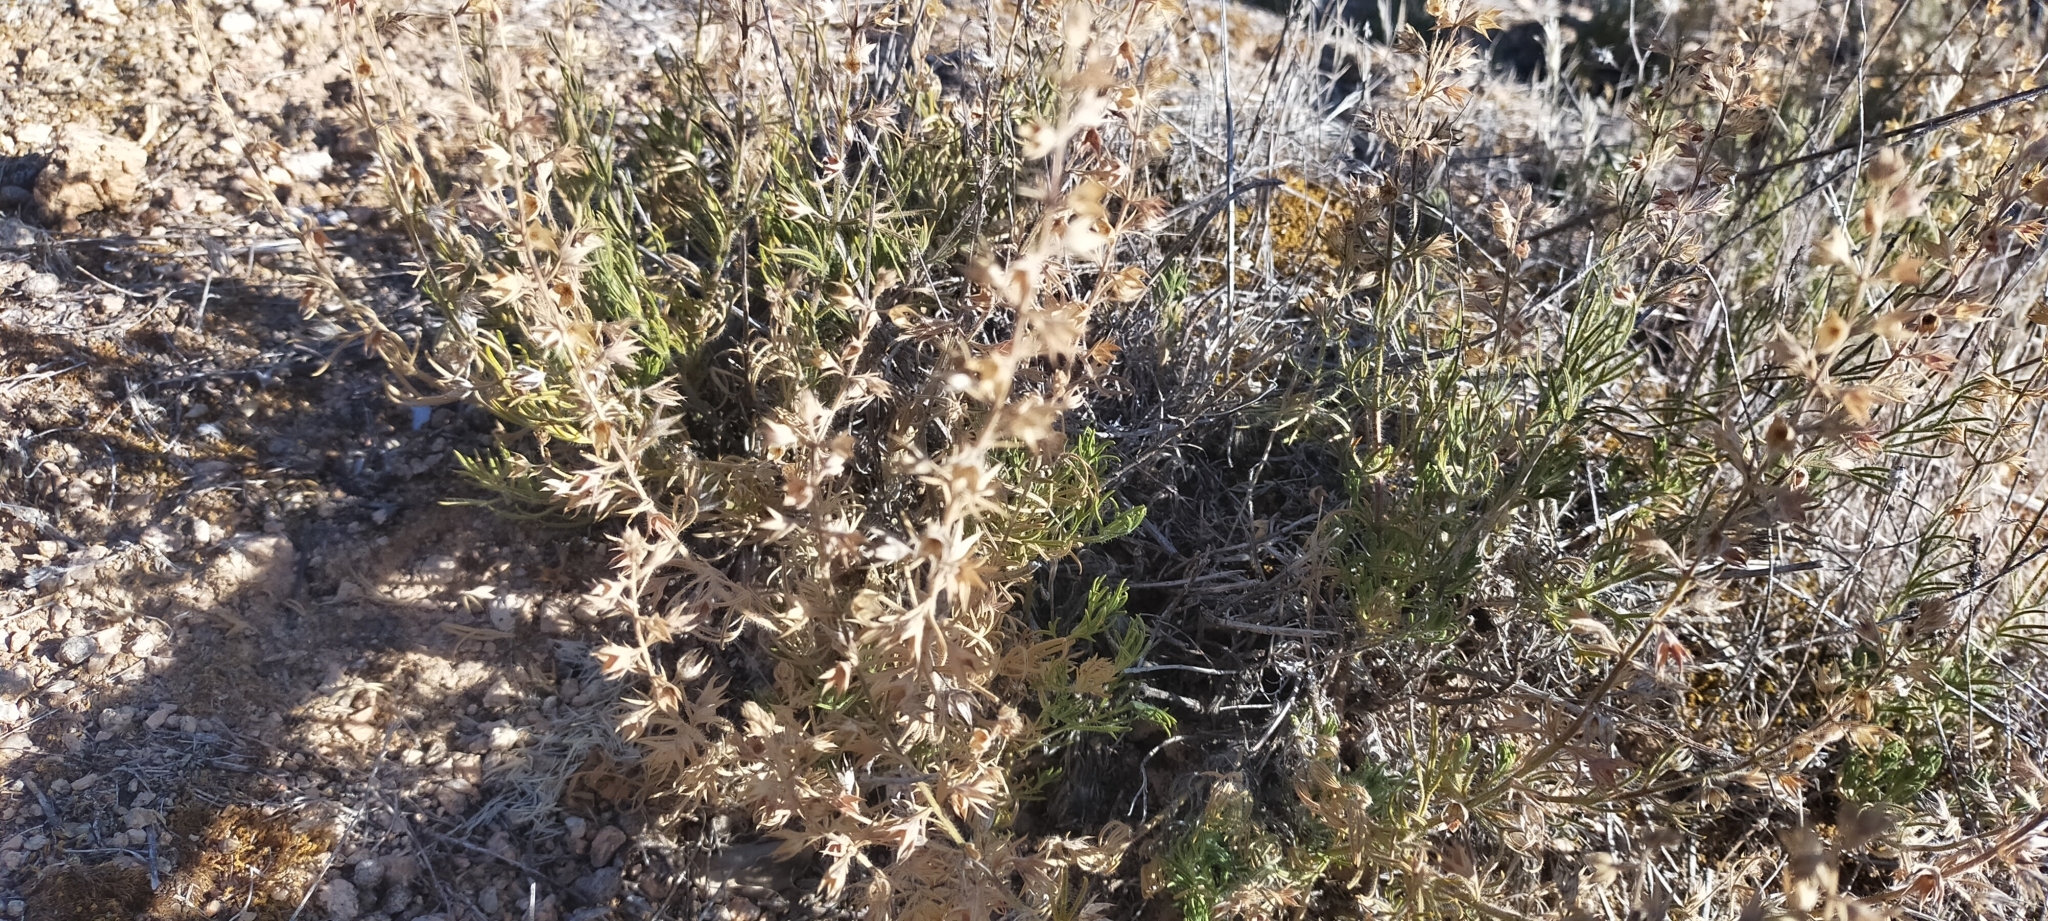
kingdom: Plantae
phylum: Tracheophyta
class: Magnoliopsida
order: Lamiales
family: Lamiaceae
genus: Teucrium
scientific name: Teucrium pseudochamaepitys
